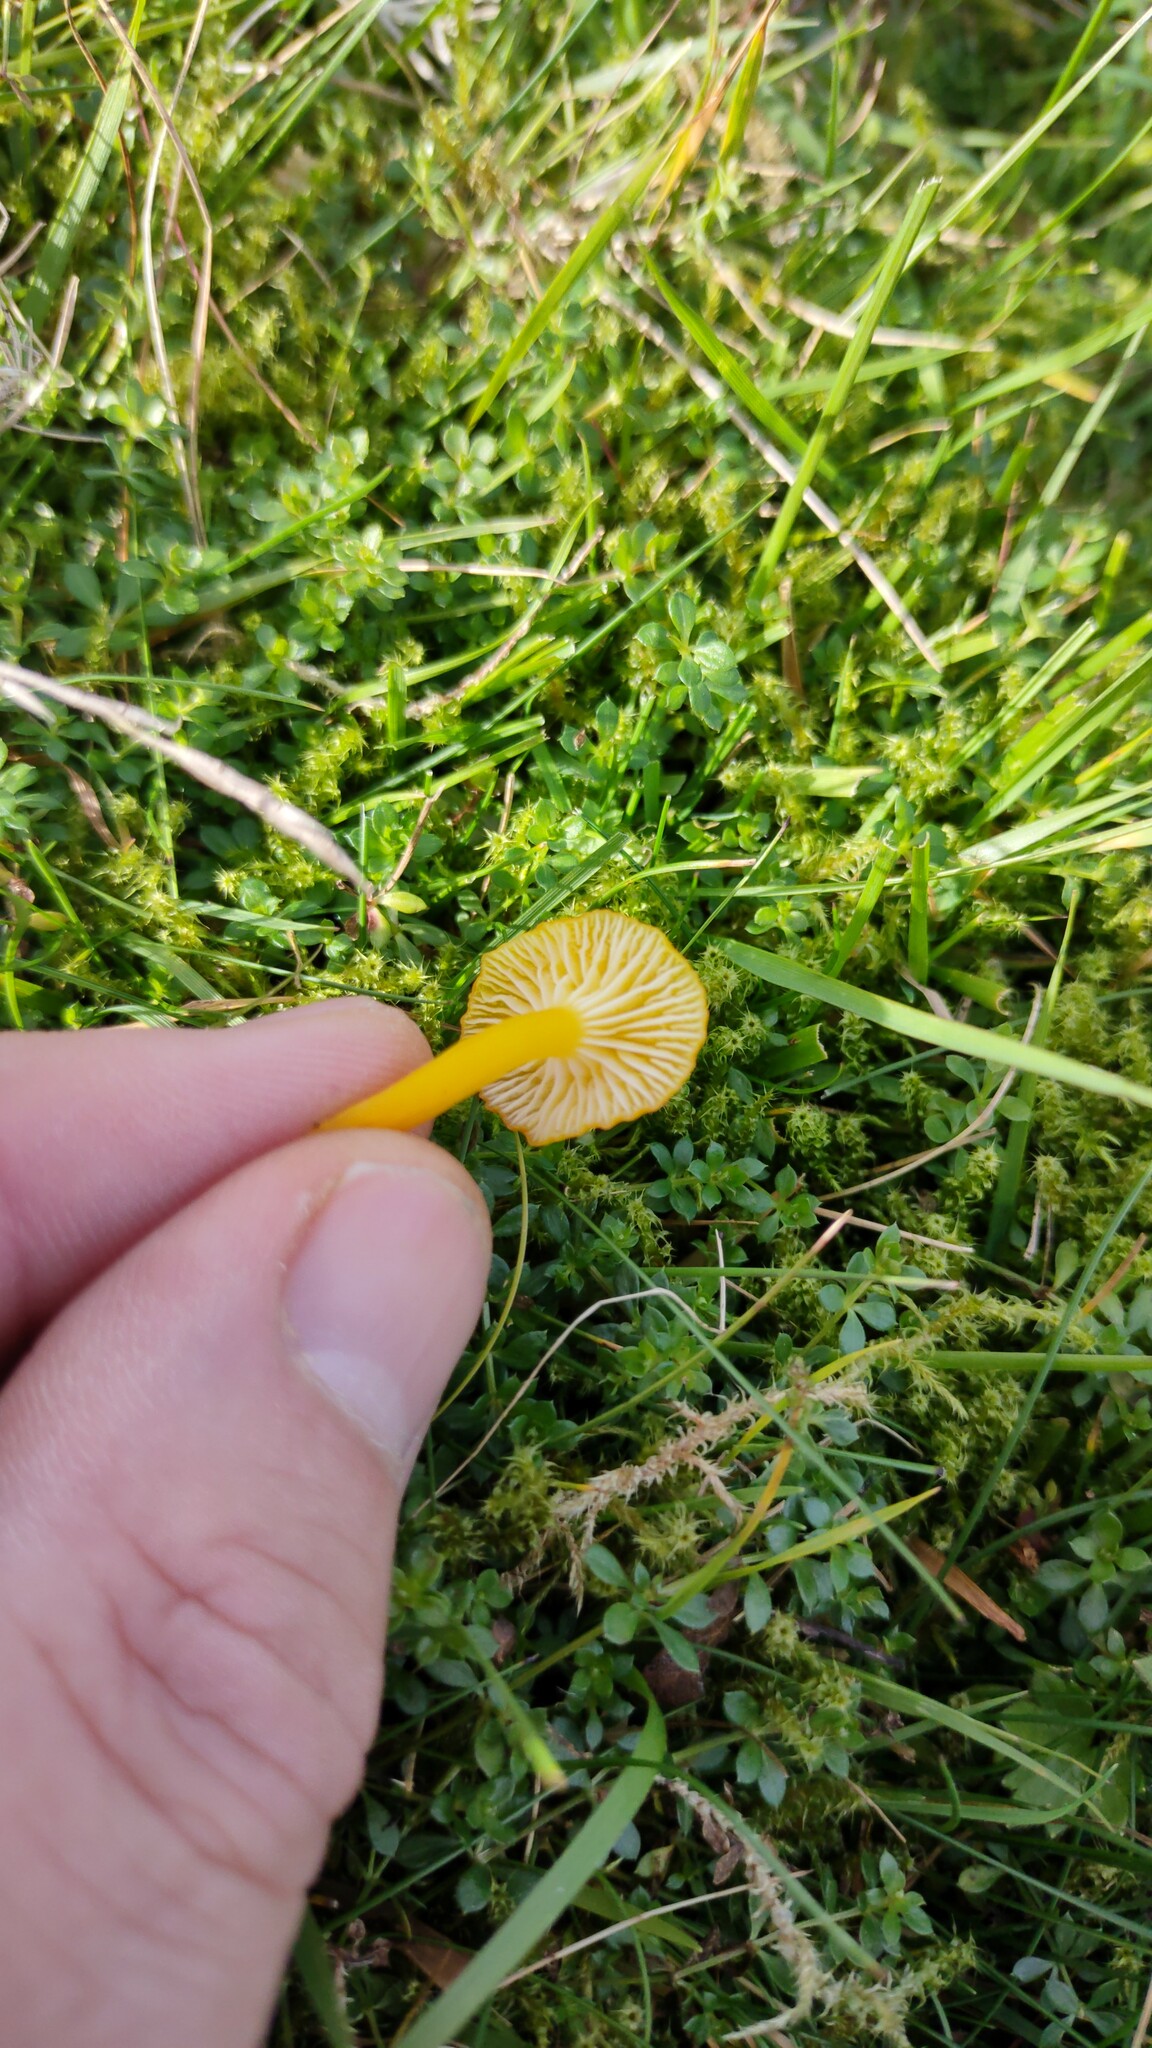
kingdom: Fungi
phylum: Basidiomycota
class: Agaricomycetes
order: Agaricales
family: Hygrophoraceae
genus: Hygrocybe
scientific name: Hygrocybe ceracea
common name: Butter waxcap
